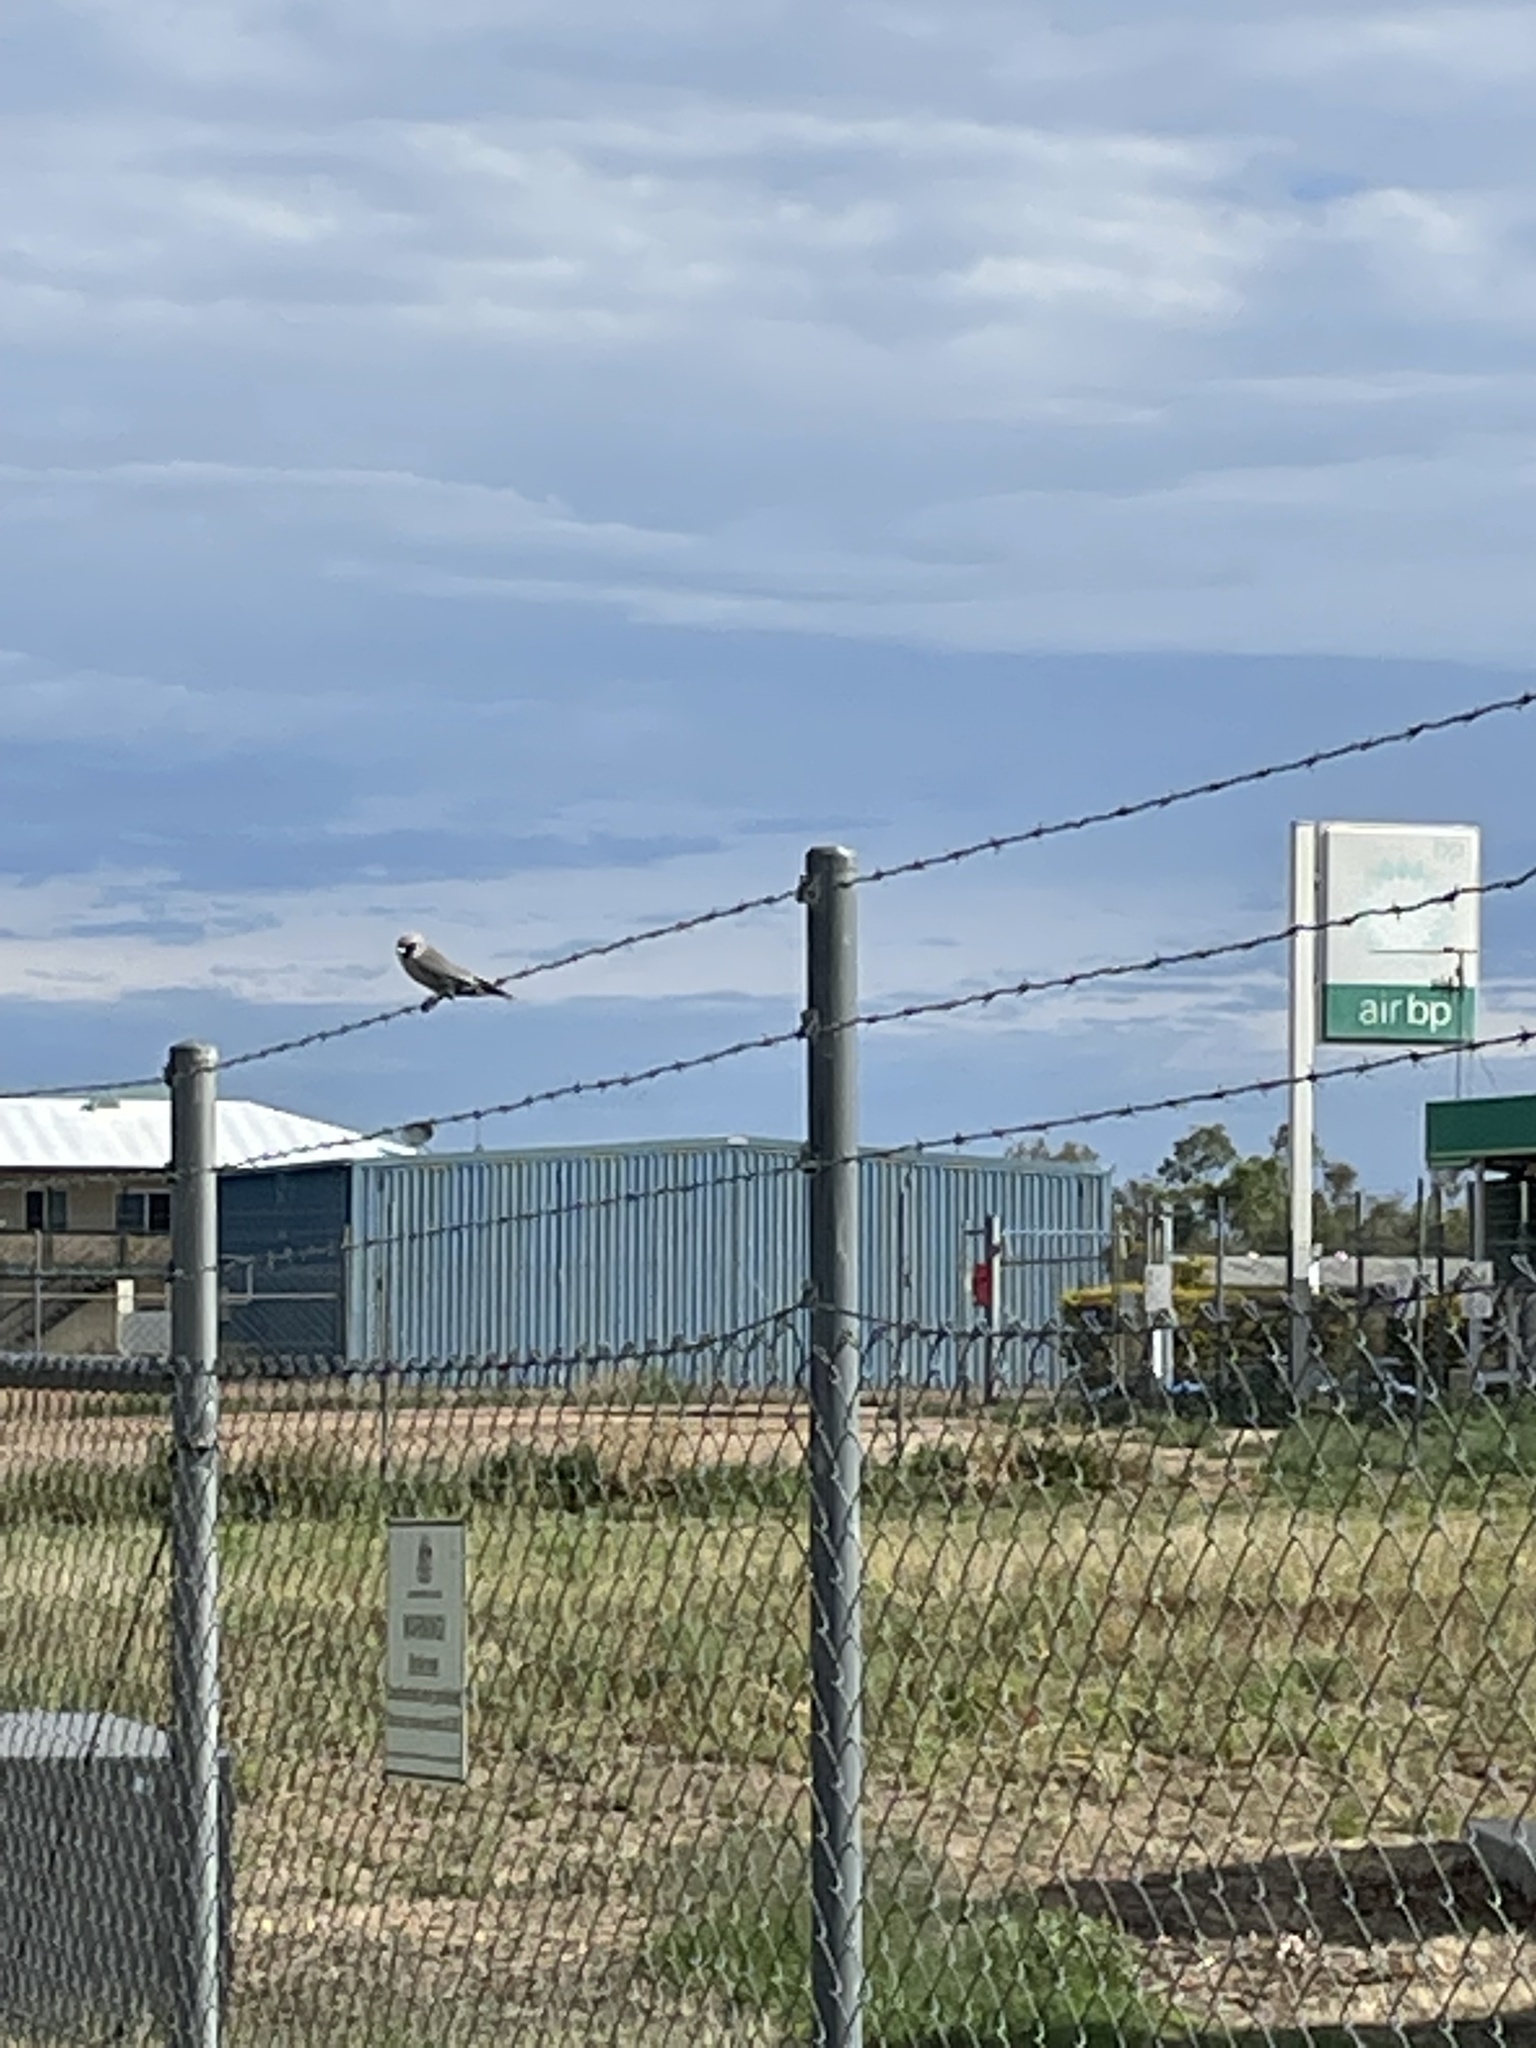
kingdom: Animalia
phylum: Chordata
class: Aves
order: Passeriformes
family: Artamidae
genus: Artamus
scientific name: Artamus cinereus
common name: Black-faced woodswallow
